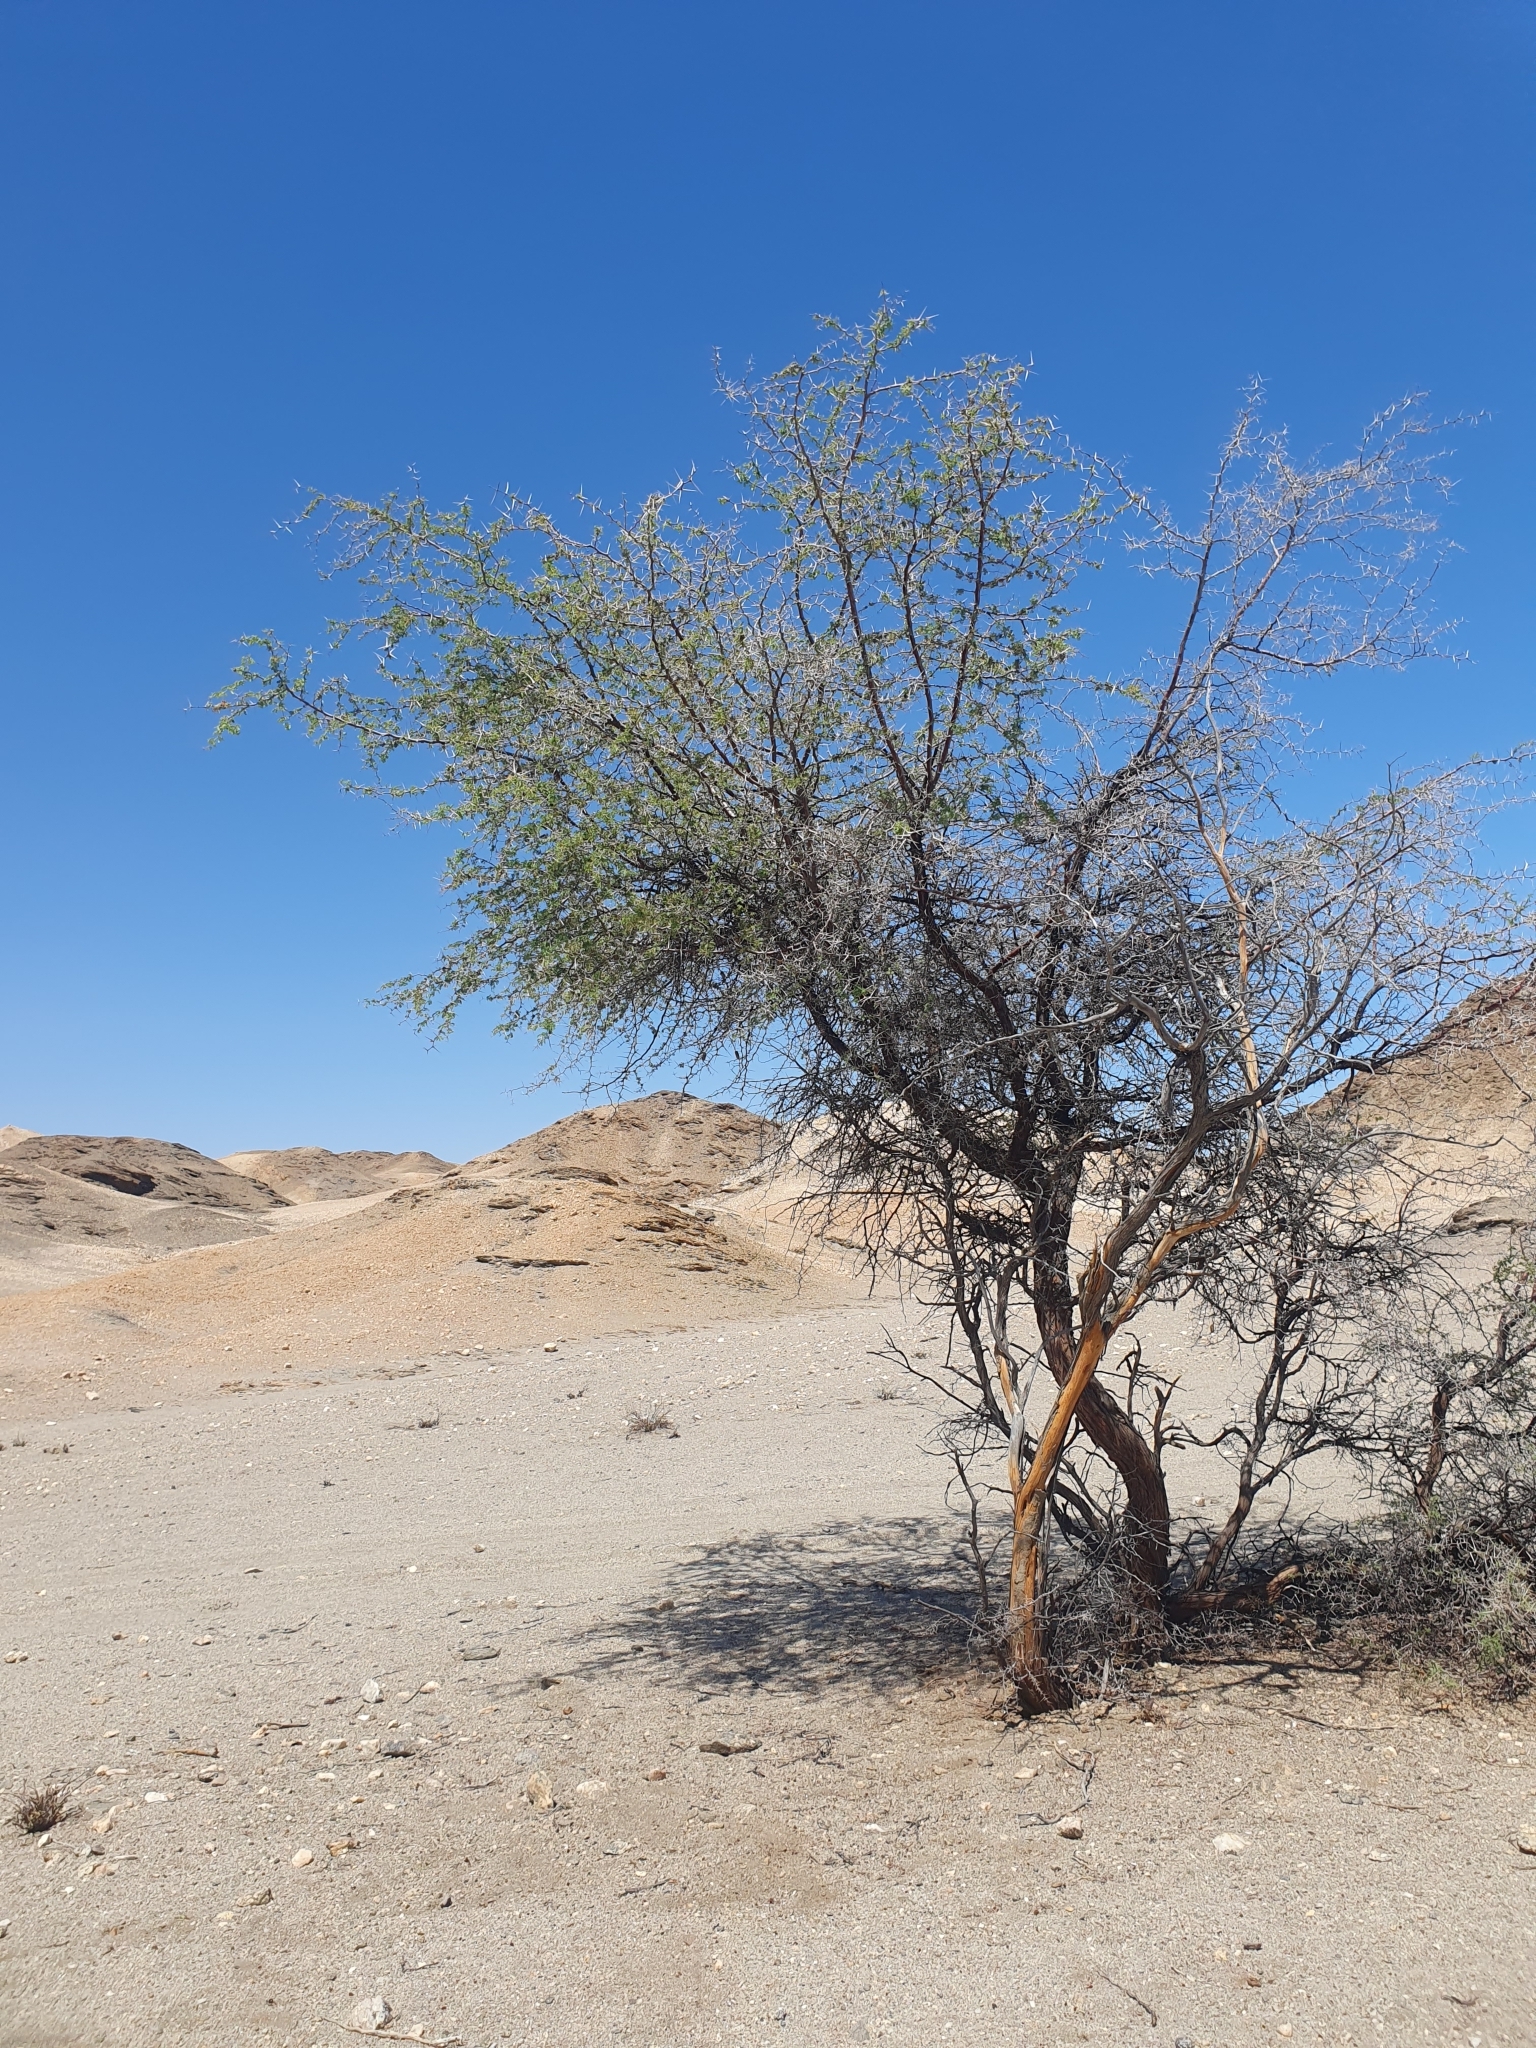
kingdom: Plantae
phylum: Tracheophyta
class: Magnoliopsida
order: Fabales
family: Fabaceae
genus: Vachellia
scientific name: Vachellia erioloba
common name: Camel thorn
